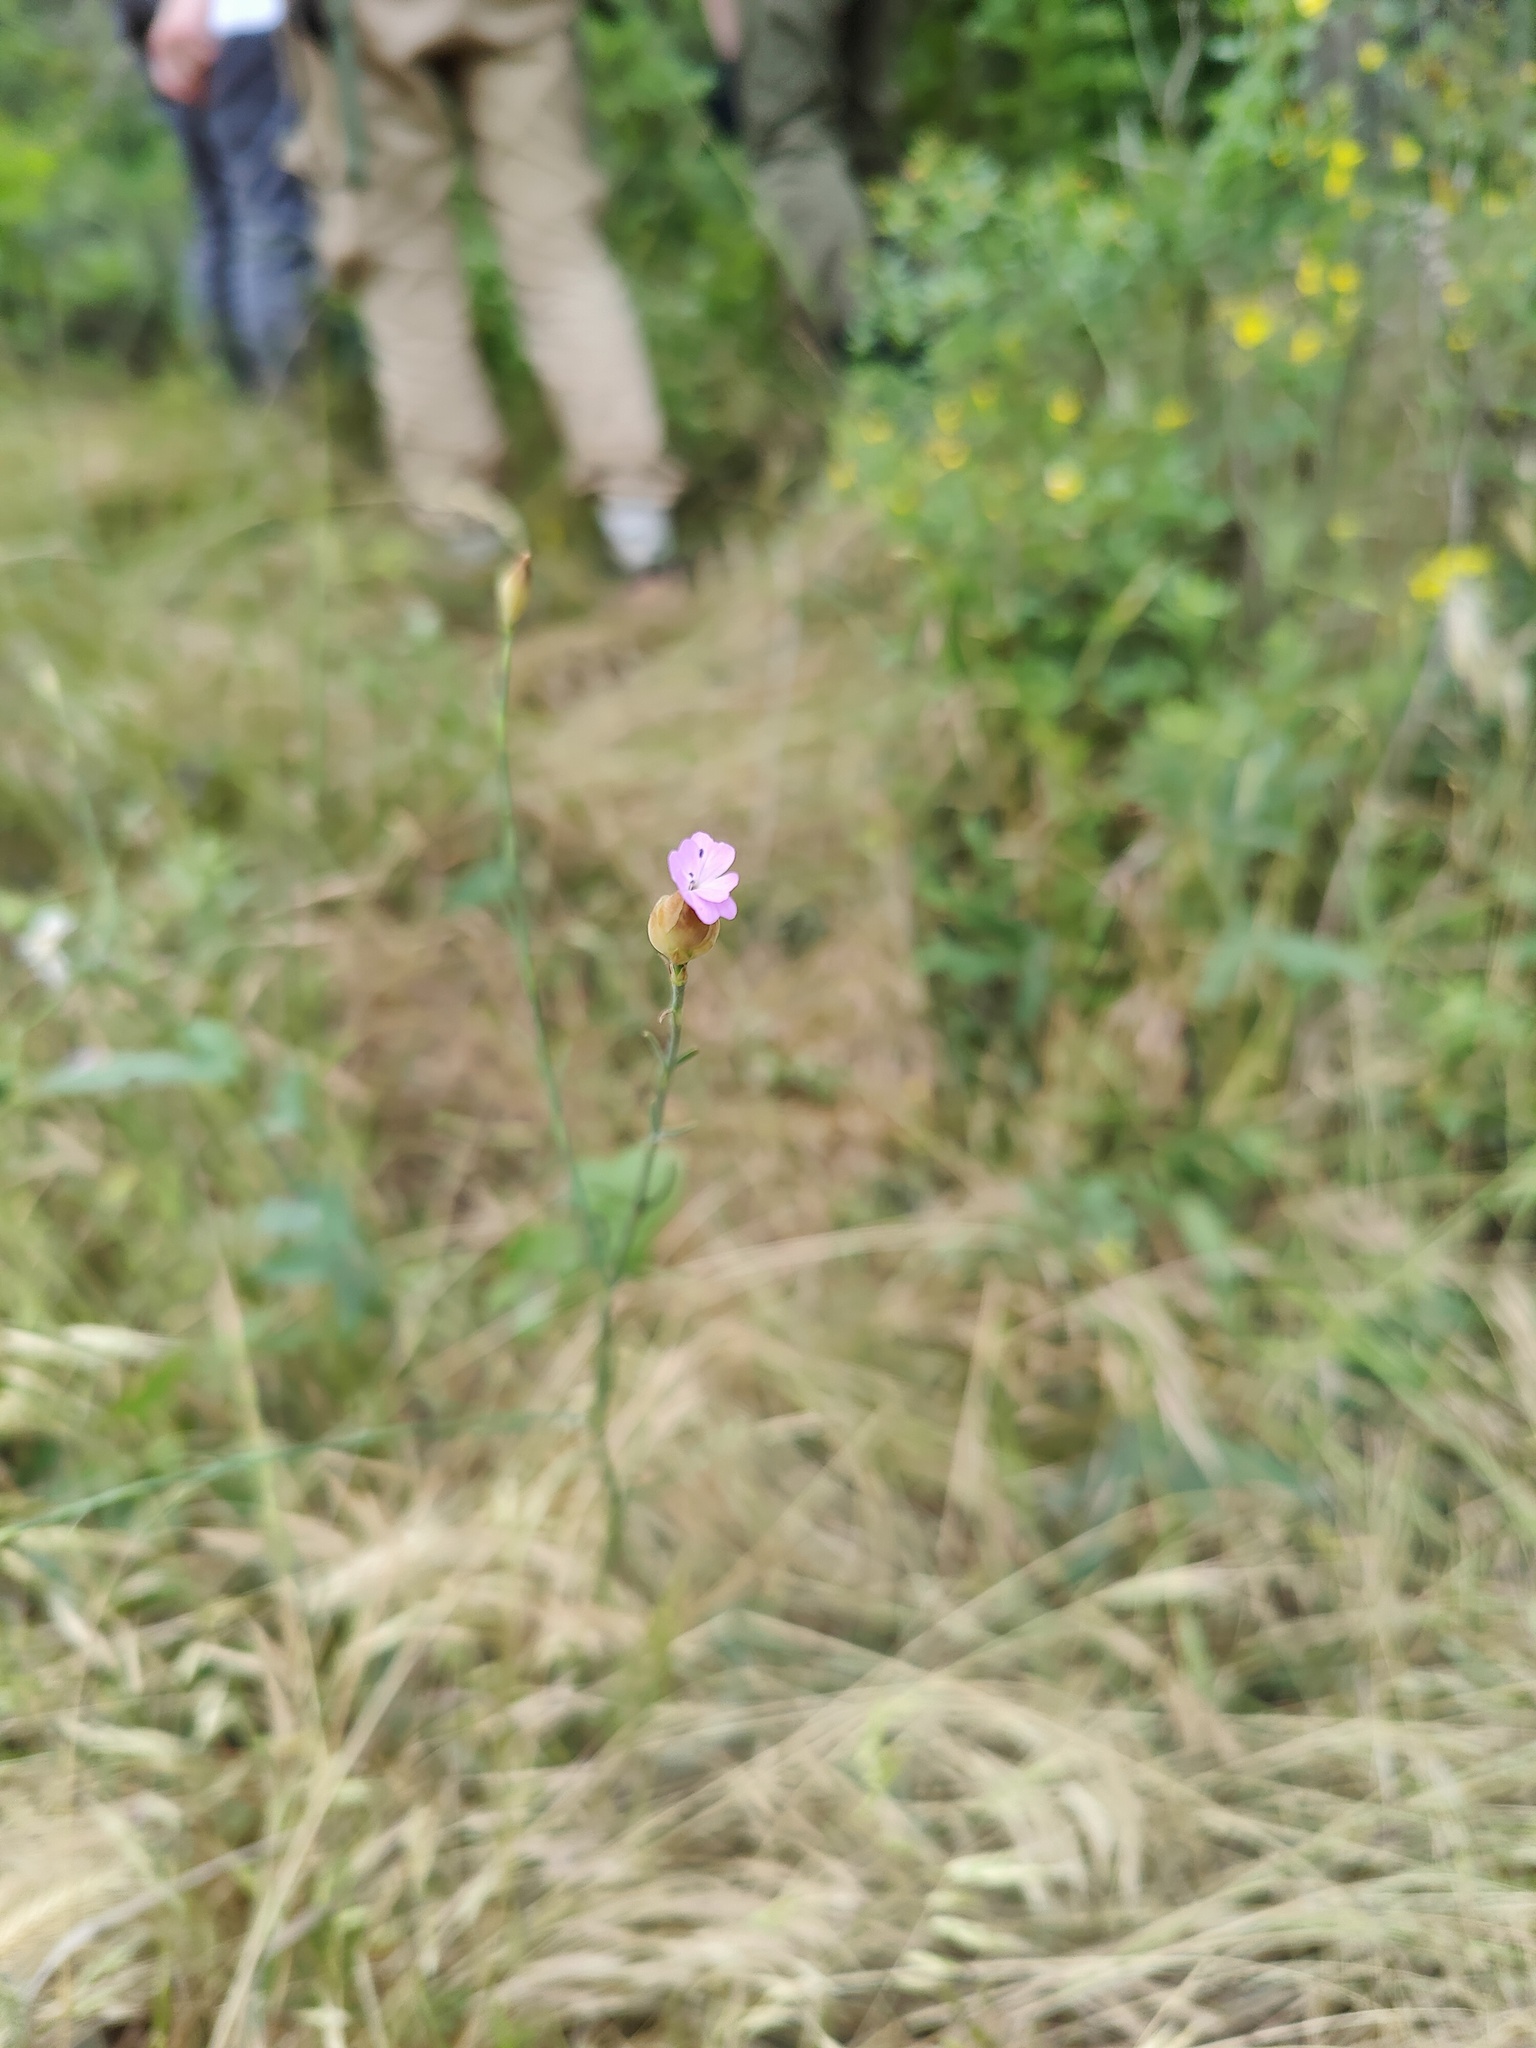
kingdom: Plantae
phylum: Tracheophyta
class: Magnoliopsida
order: Caryophyllales
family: Caryophyllaceae
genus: Petrorhagia
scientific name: Petrorhagia prolifera
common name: Proliferous pink
